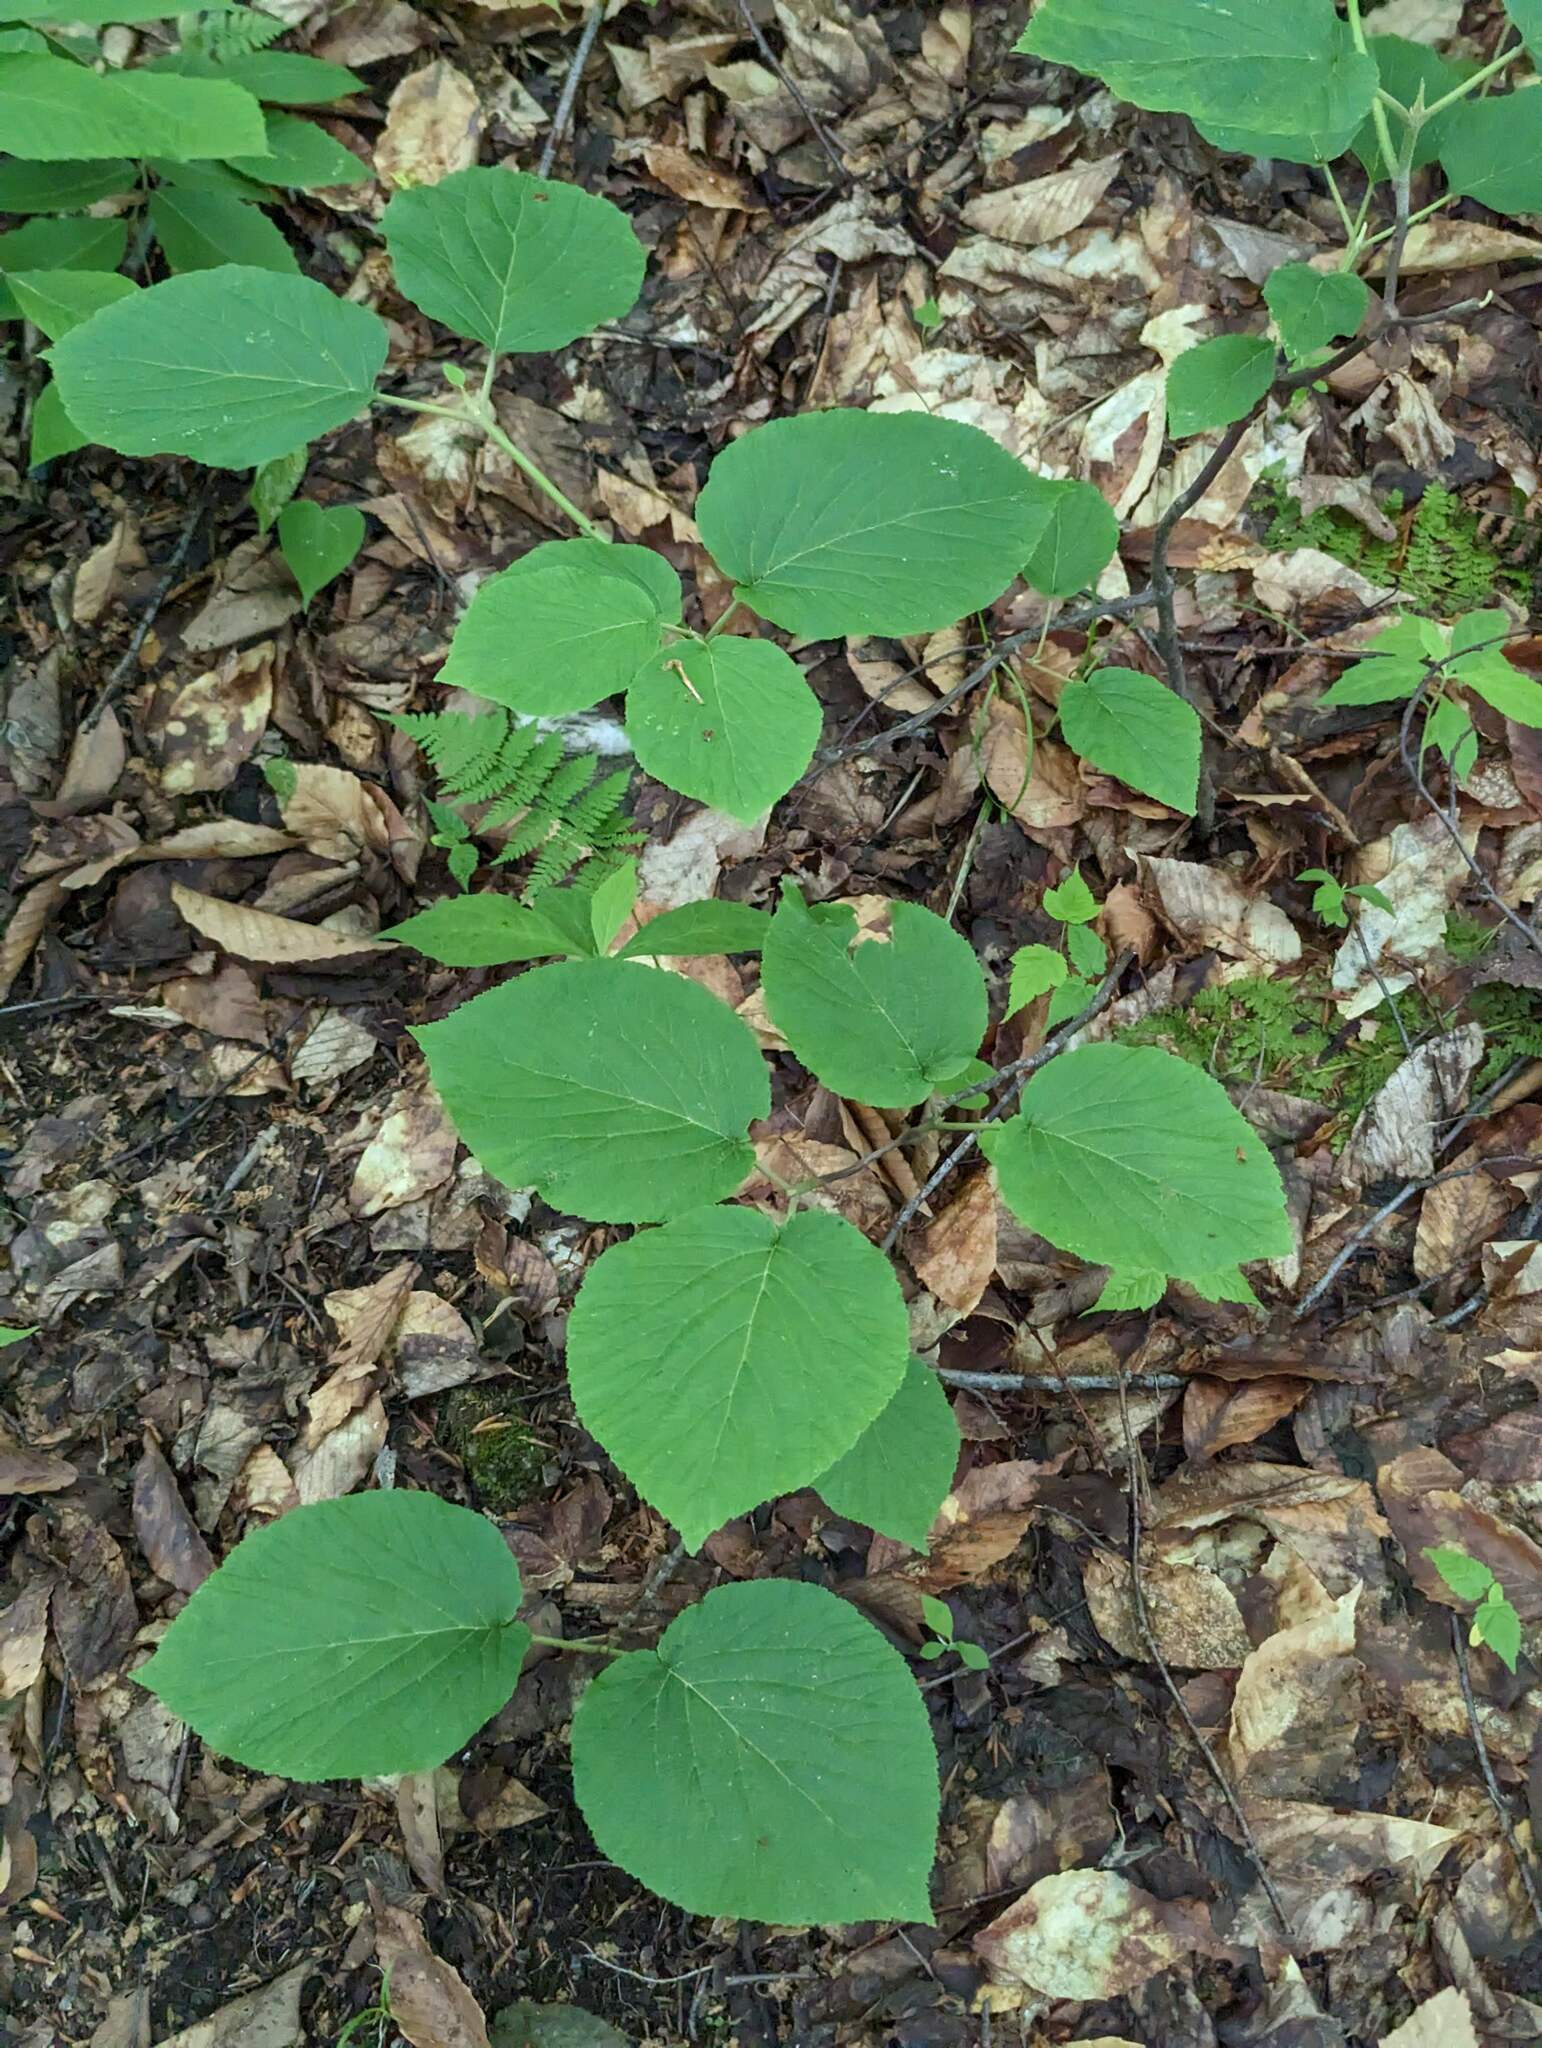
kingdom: Plantae
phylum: Tracheophyta
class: Magnoliopsida
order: Dipsacales
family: Viburnaceae
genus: Viburnum
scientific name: Viburnum lantanoides
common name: Hobblebush
